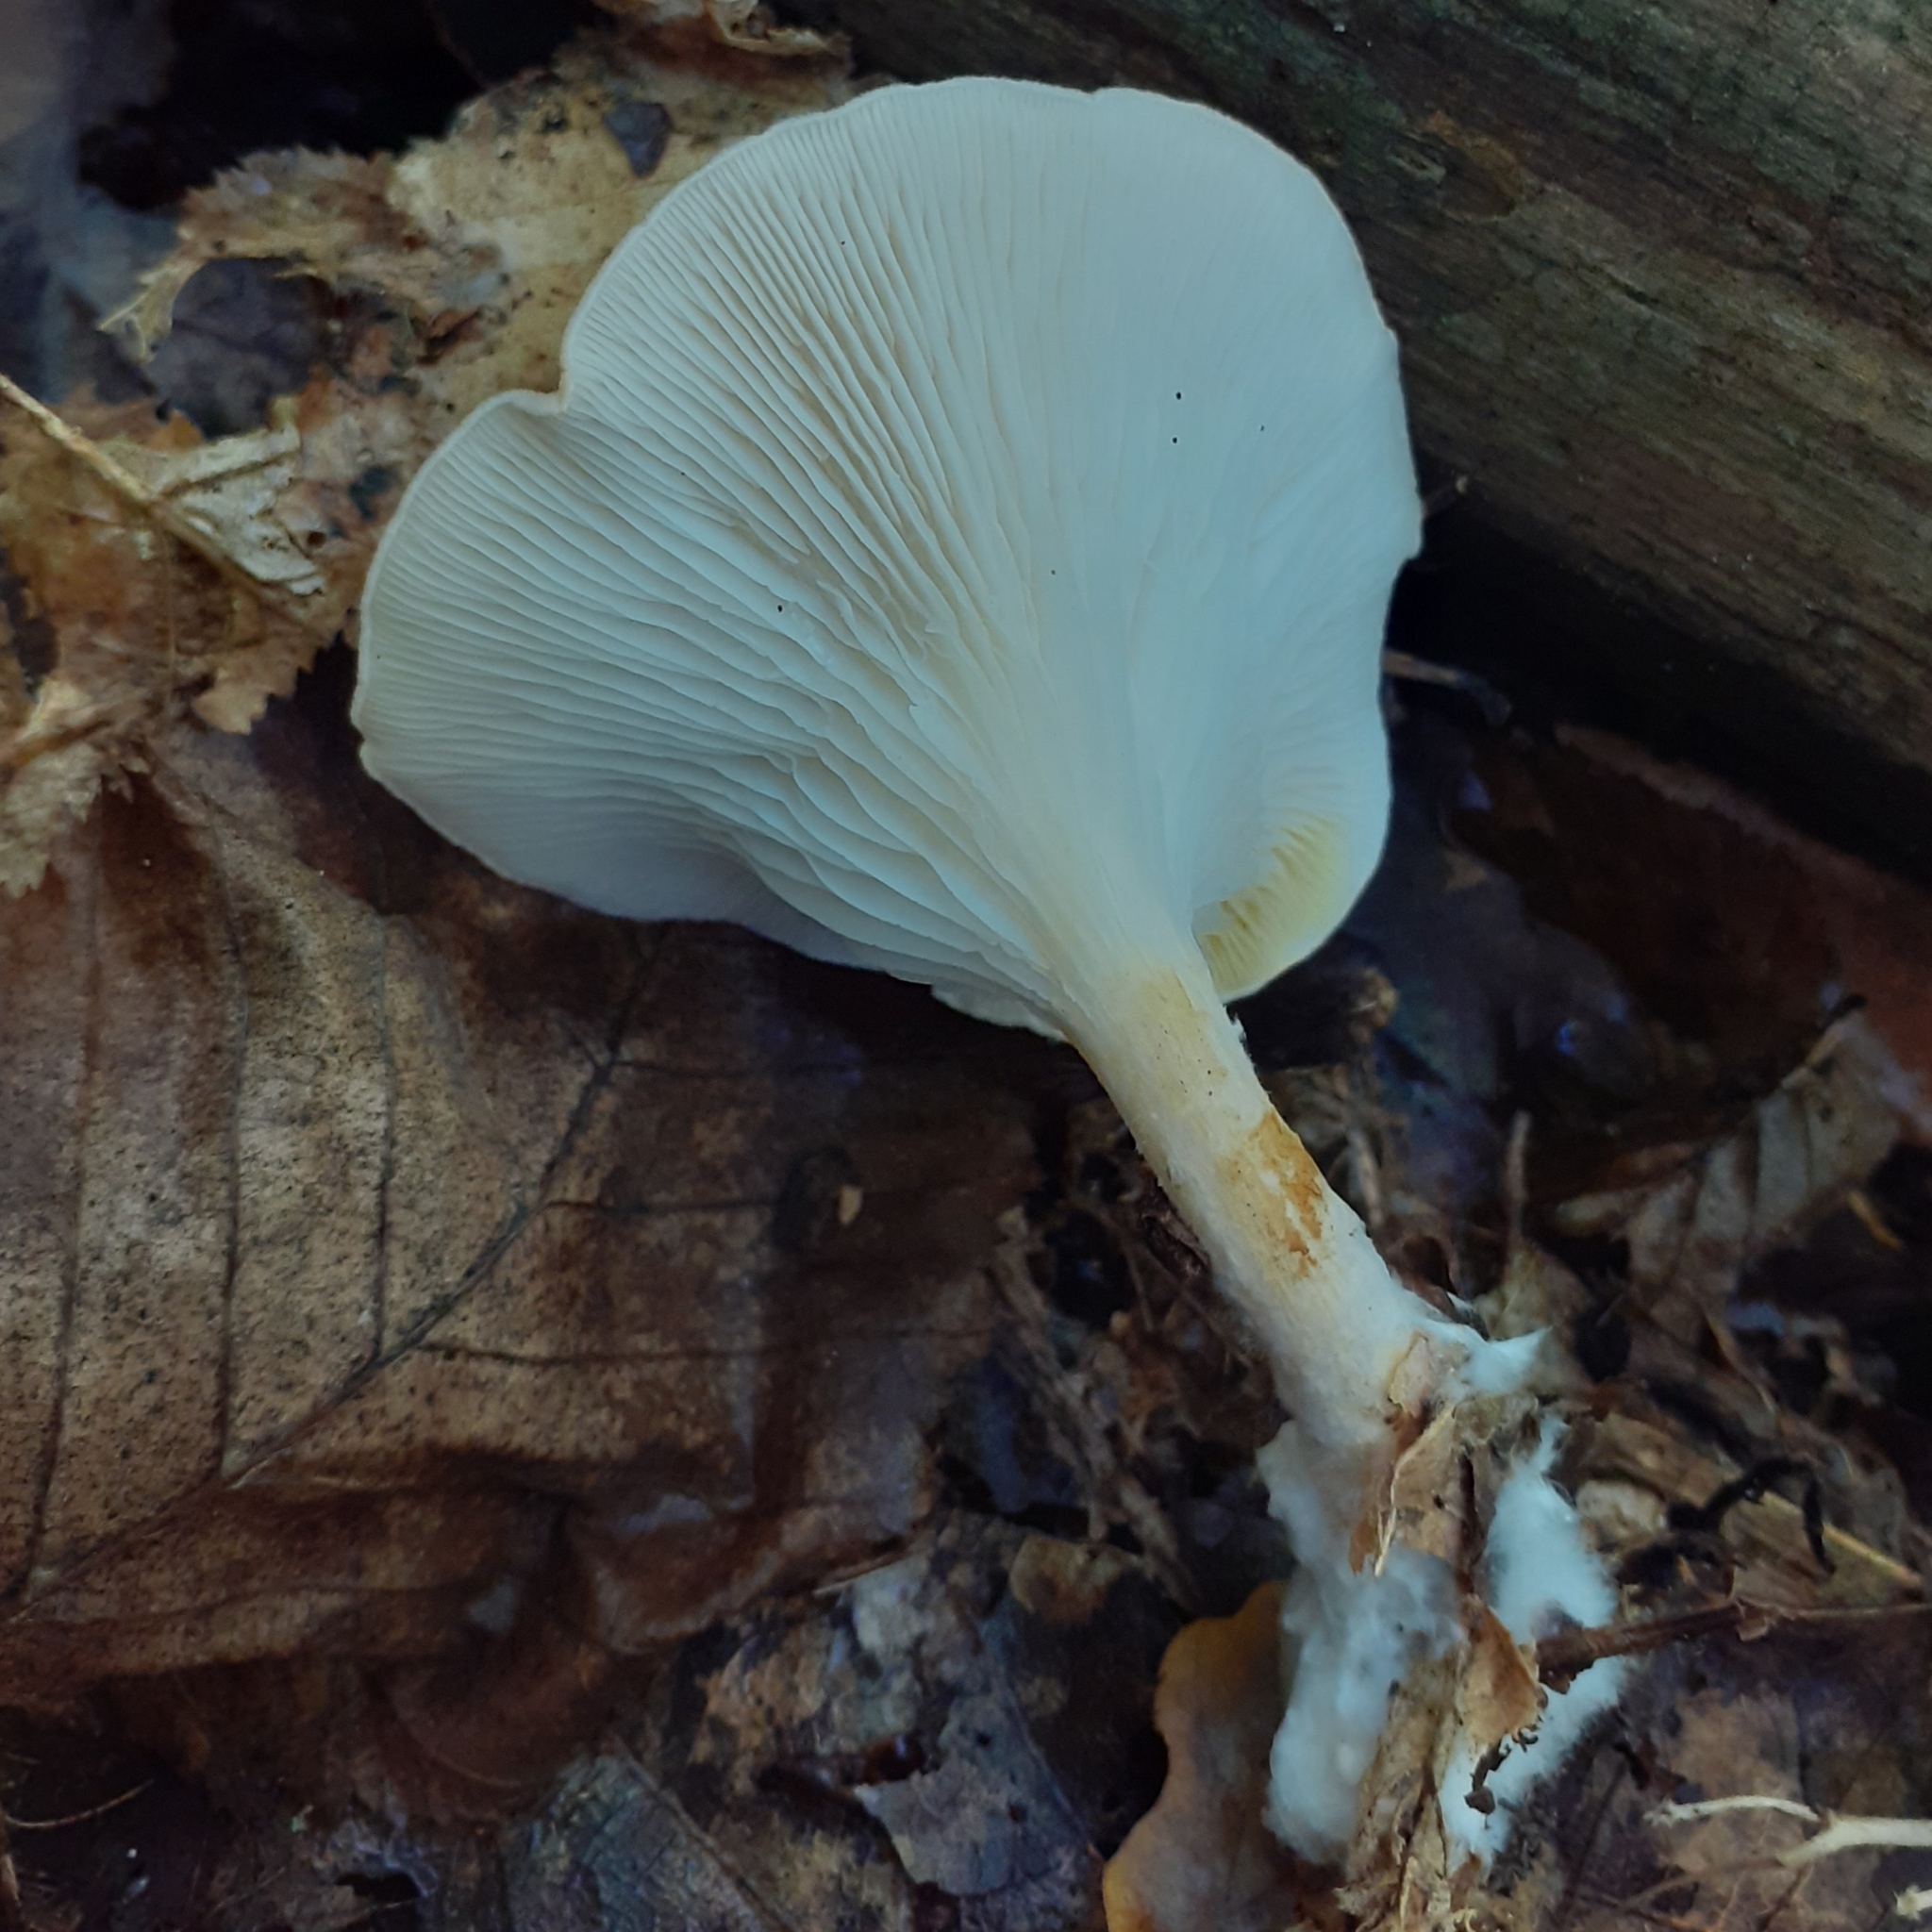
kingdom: Fungi
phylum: Basidiomycota
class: Agaricomycetes
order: Agaricales
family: Tricholomataceae
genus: Infundibulicybe
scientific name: Infundibulicybe gibba
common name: Common funnel
